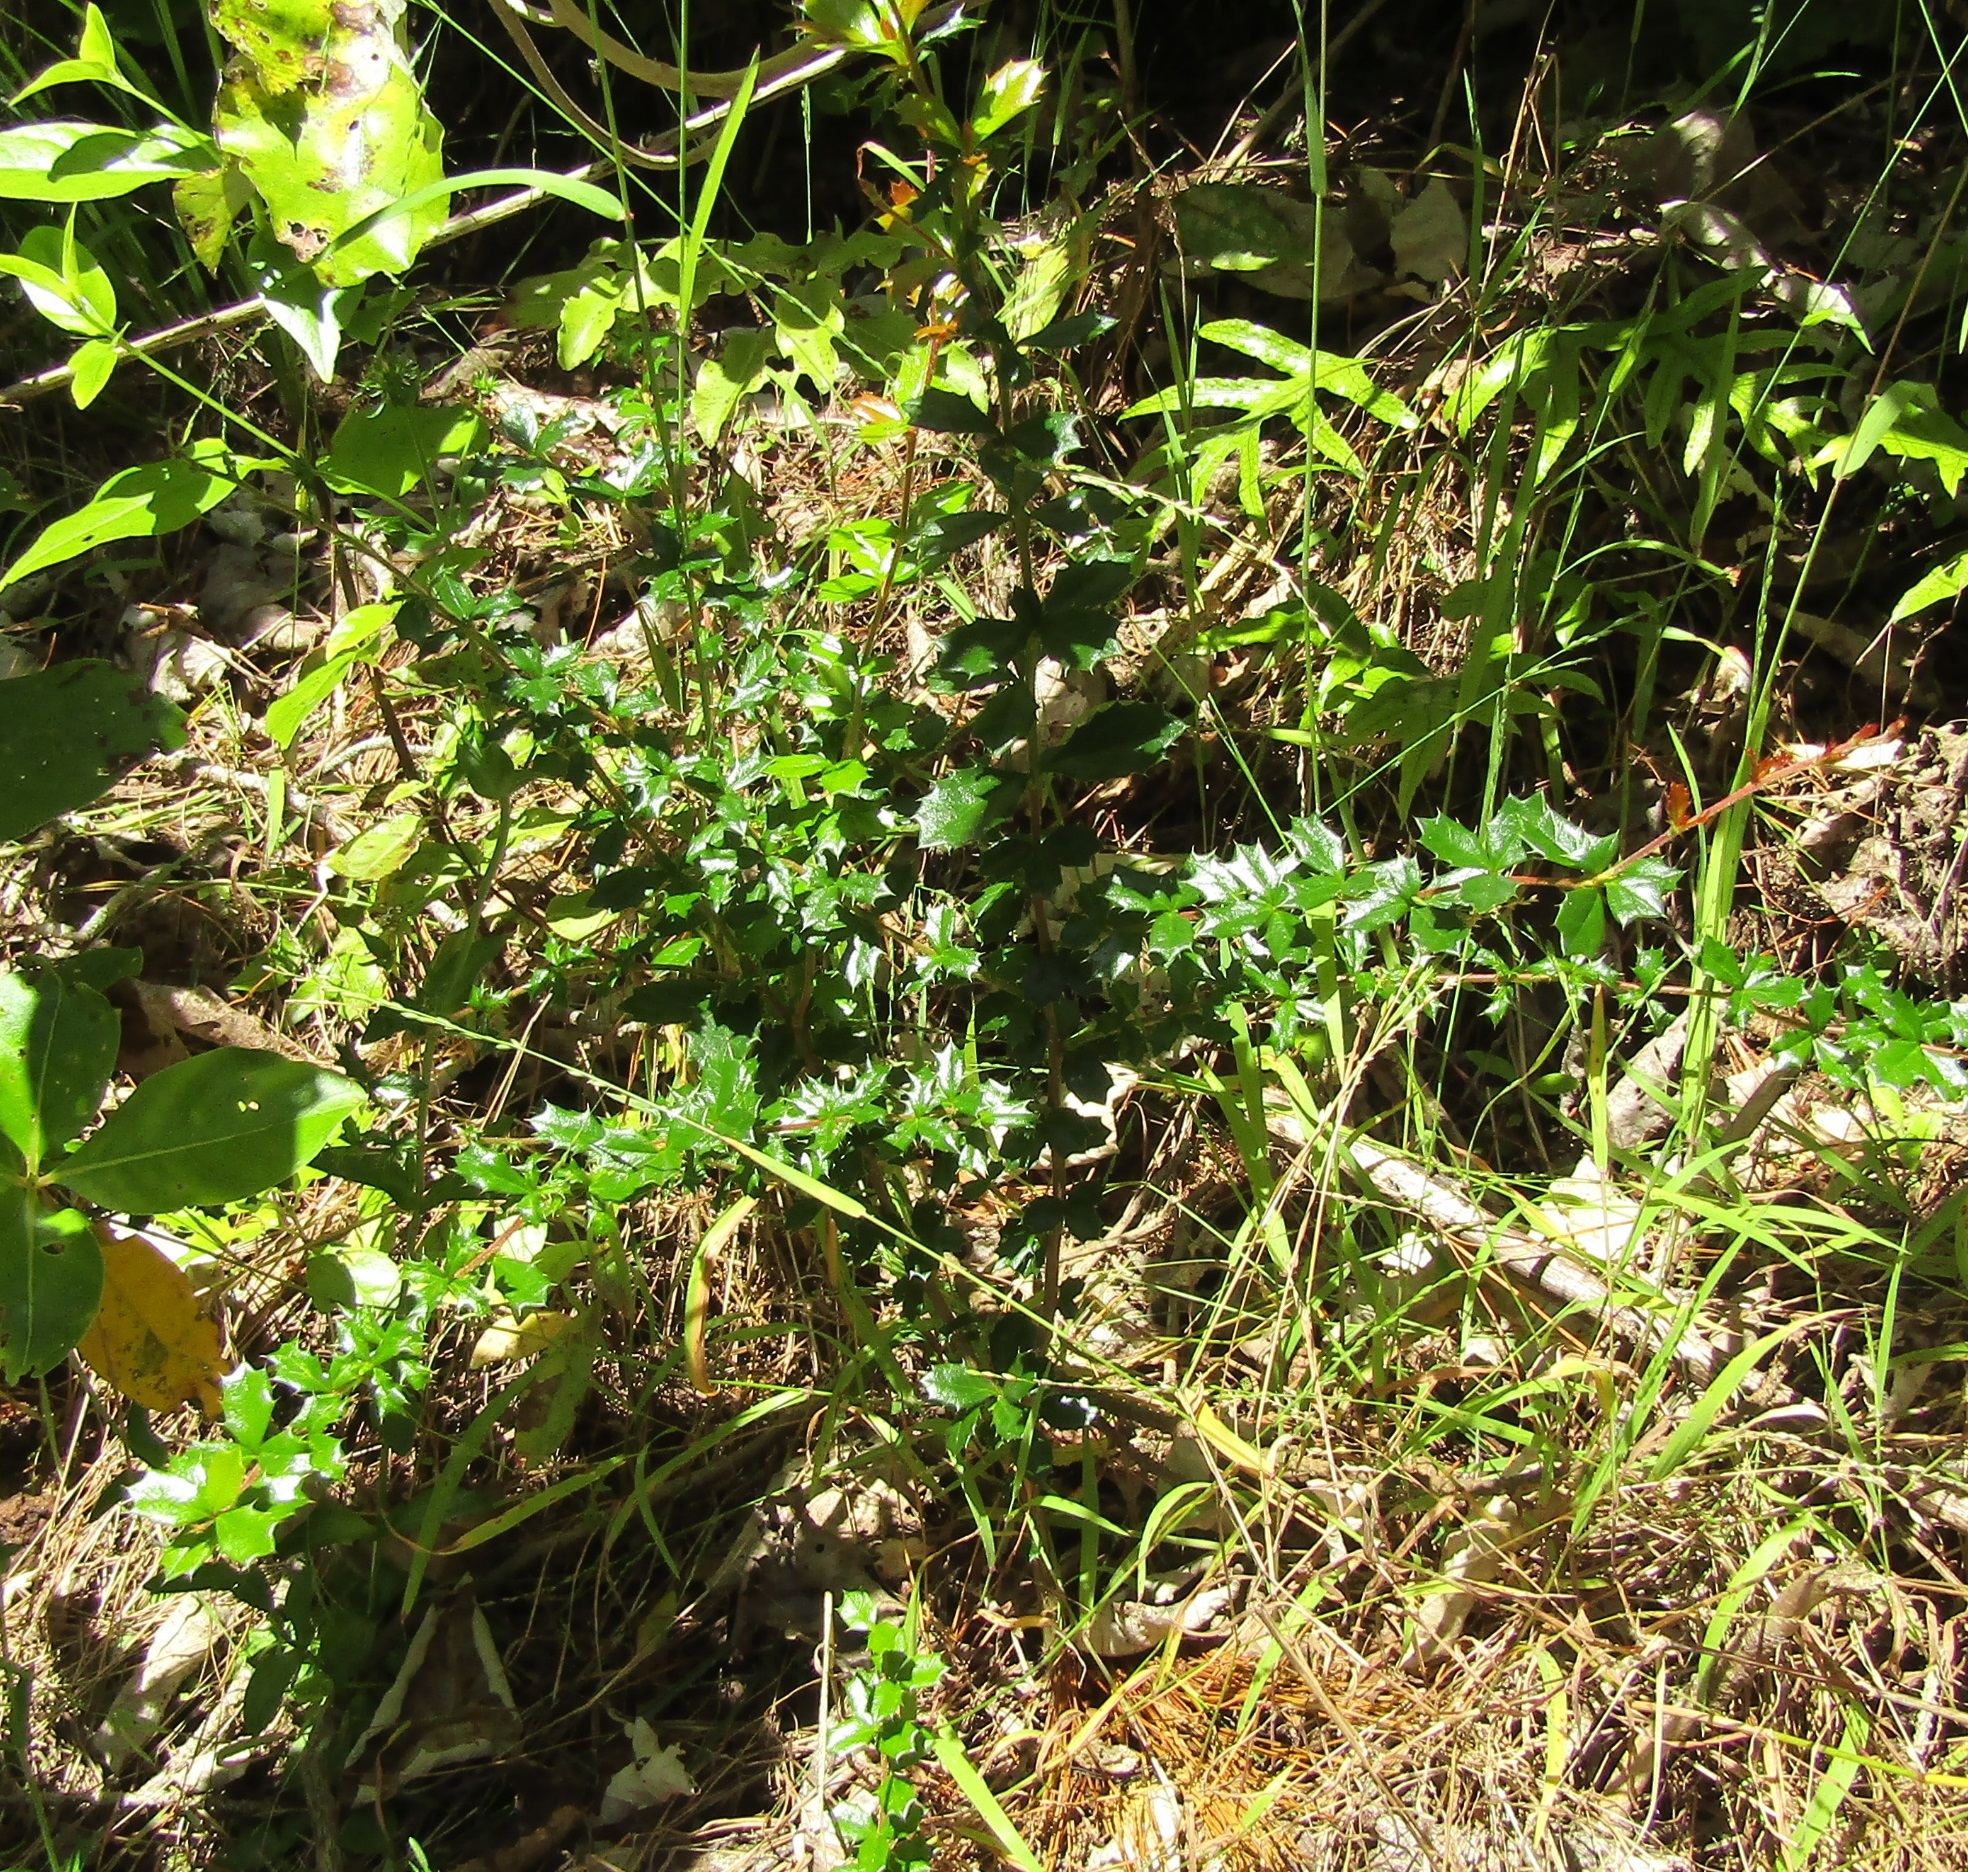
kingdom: Plantae
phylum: Tracheophyta
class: Magnoliopsida
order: Ranunculales
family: Berberidaceae
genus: Berberis
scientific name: Berberis darwinii
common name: Darwin's barberry
